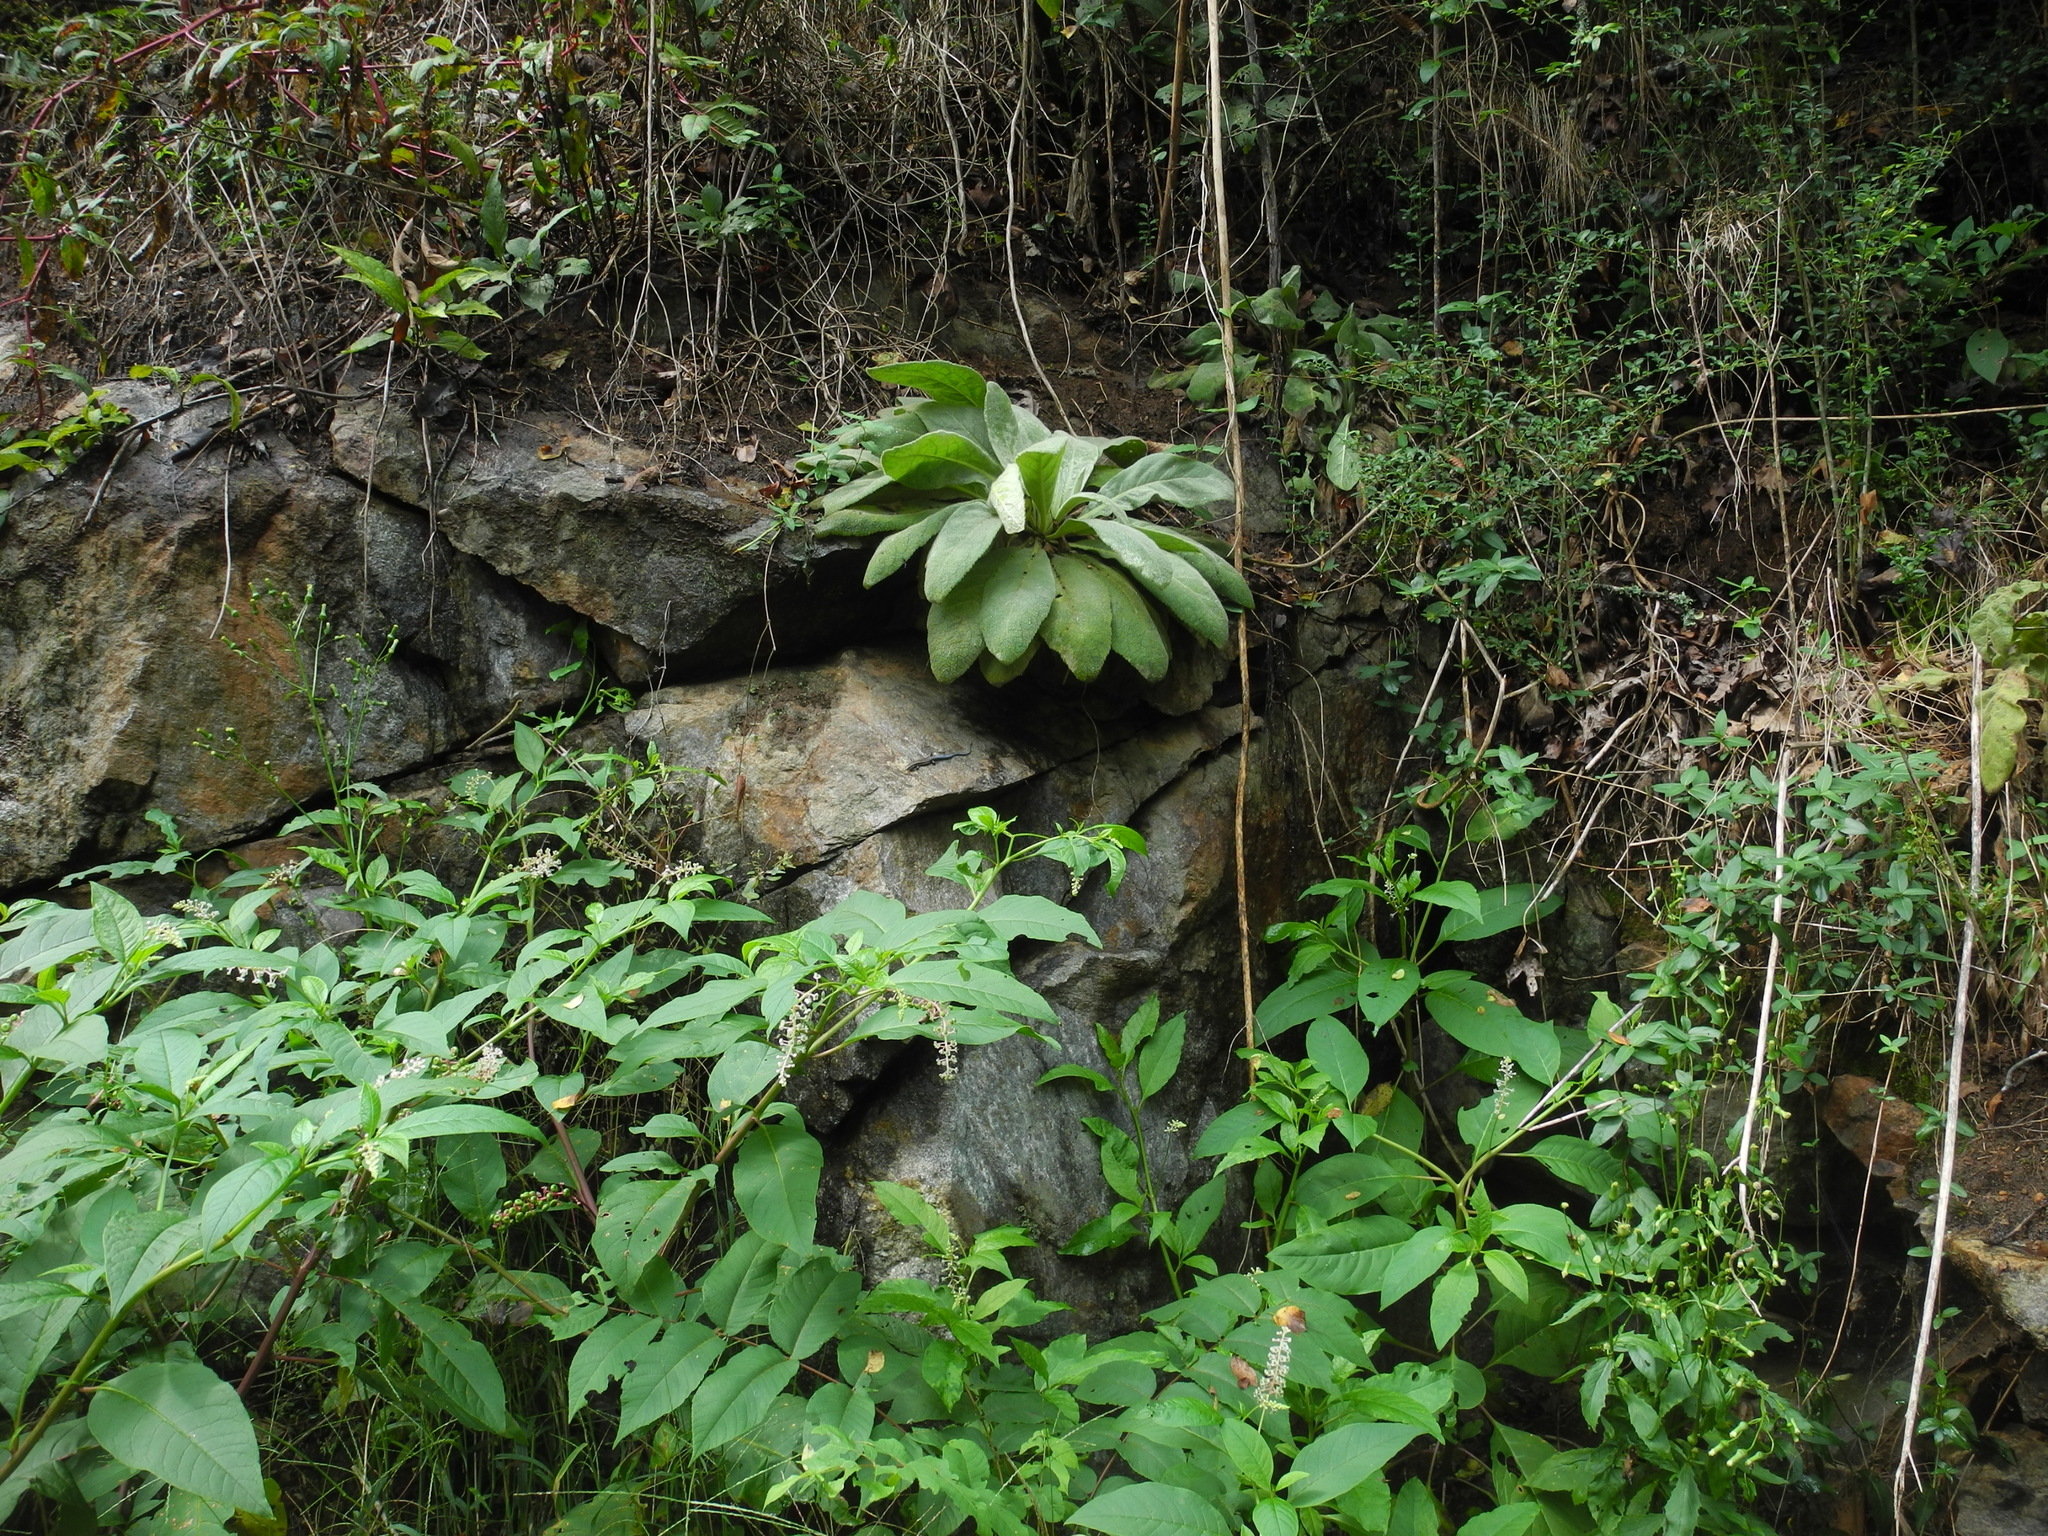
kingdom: Animalia
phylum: Chordata
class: Squamata
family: Scincidae
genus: Plestiodon
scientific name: Plestiodon fasciatus
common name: Five-lined skink
